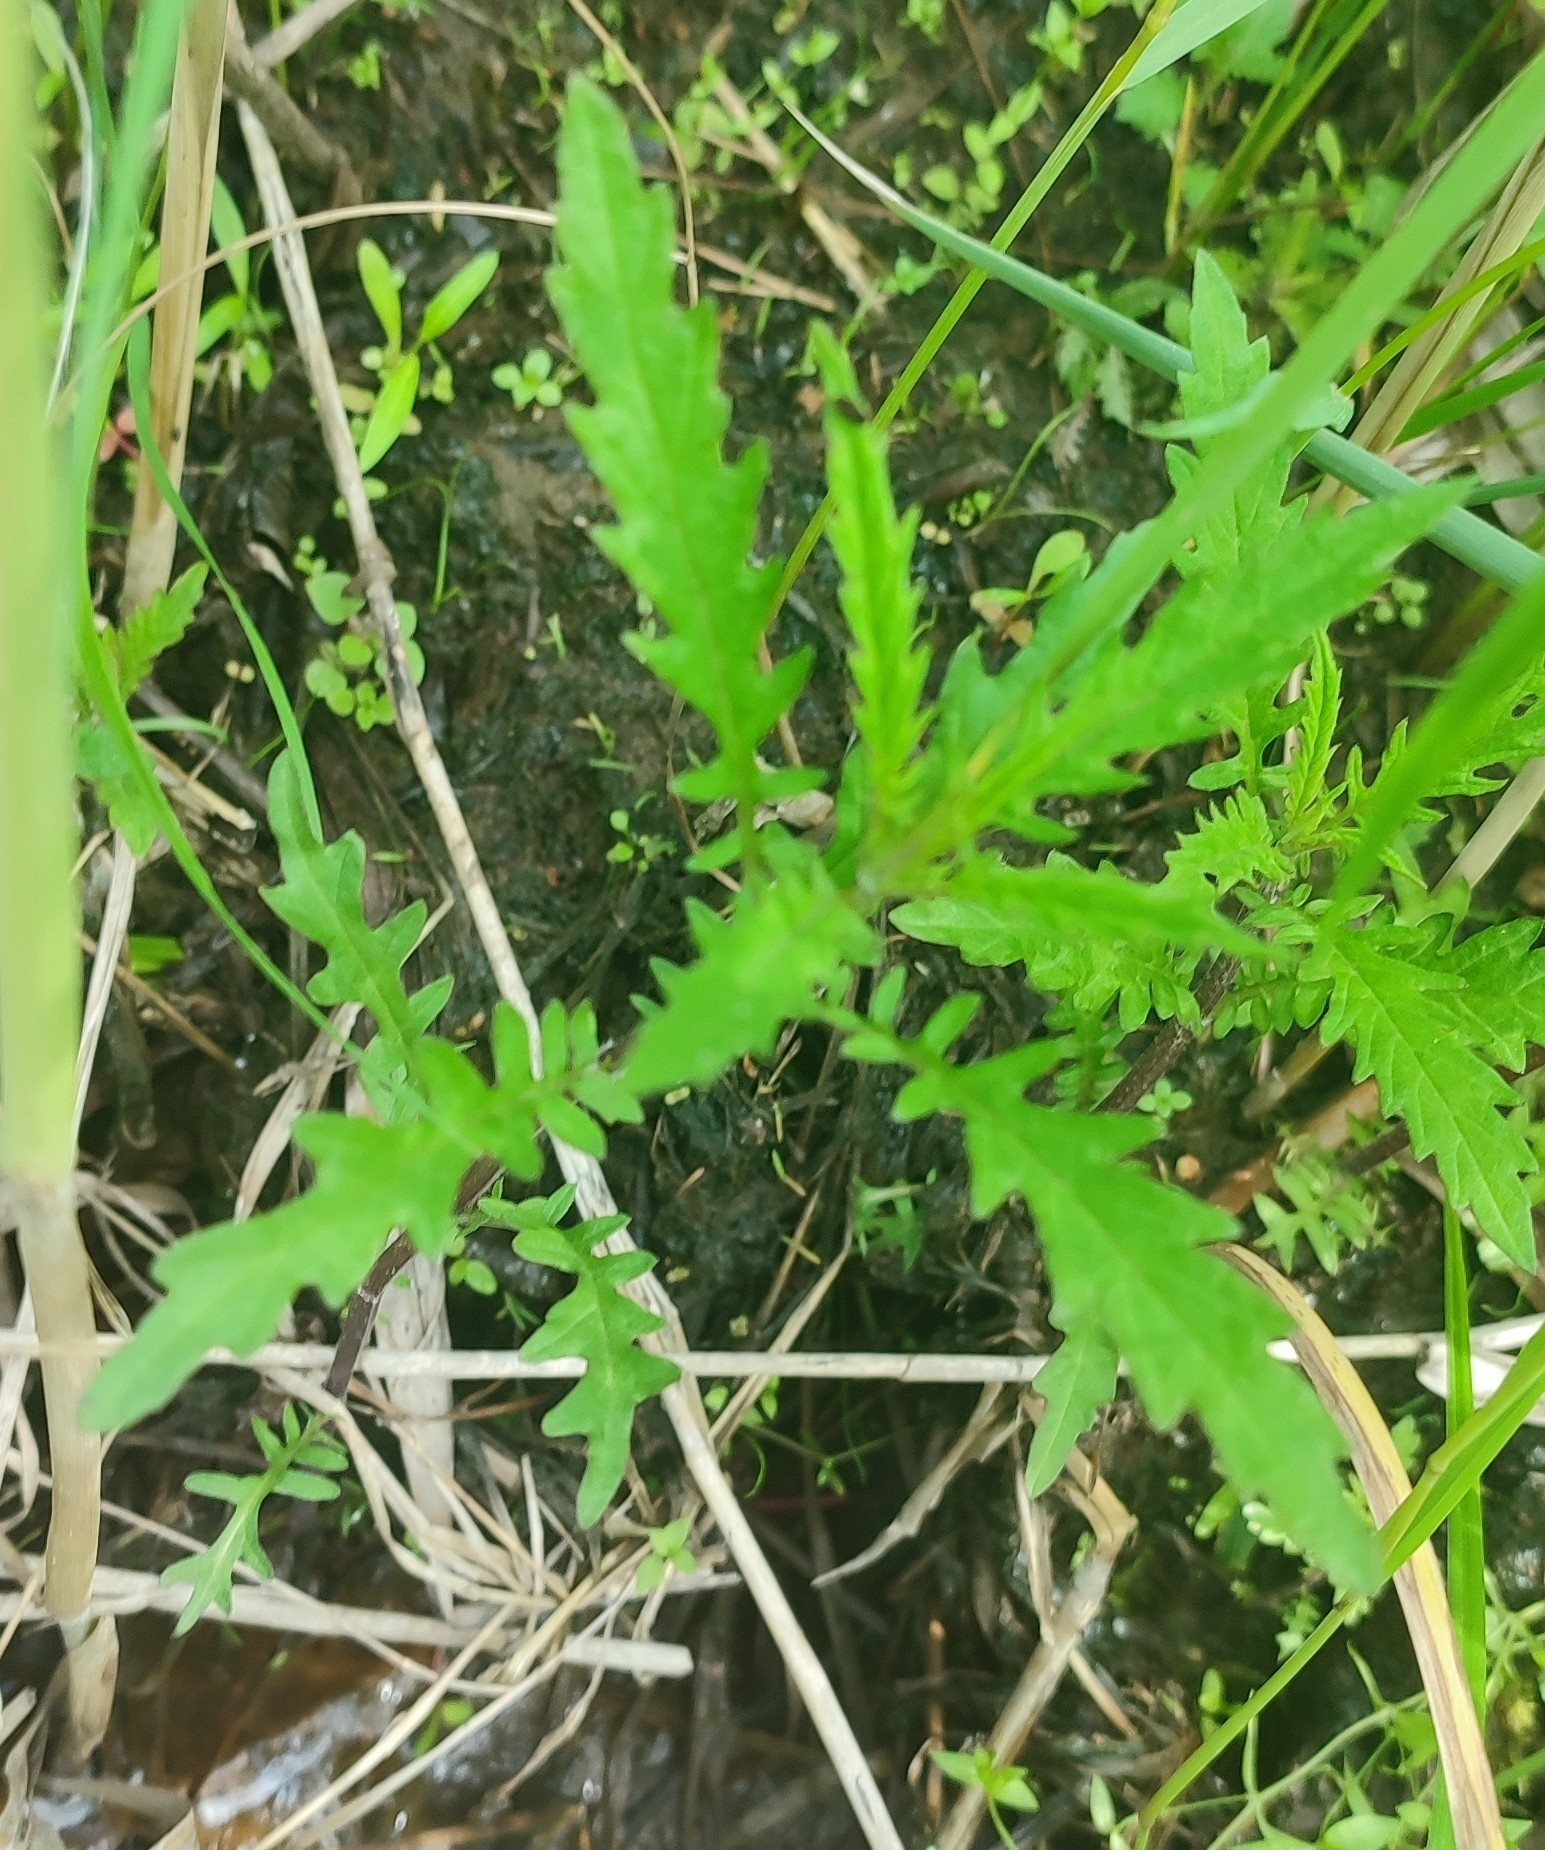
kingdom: Plantae
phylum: Tracheophyta
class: Magnoliopsida
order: Lamiales
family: Lamiaceae
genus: Lycopus
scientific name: Lycopus europaeus
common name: European bugleweed
